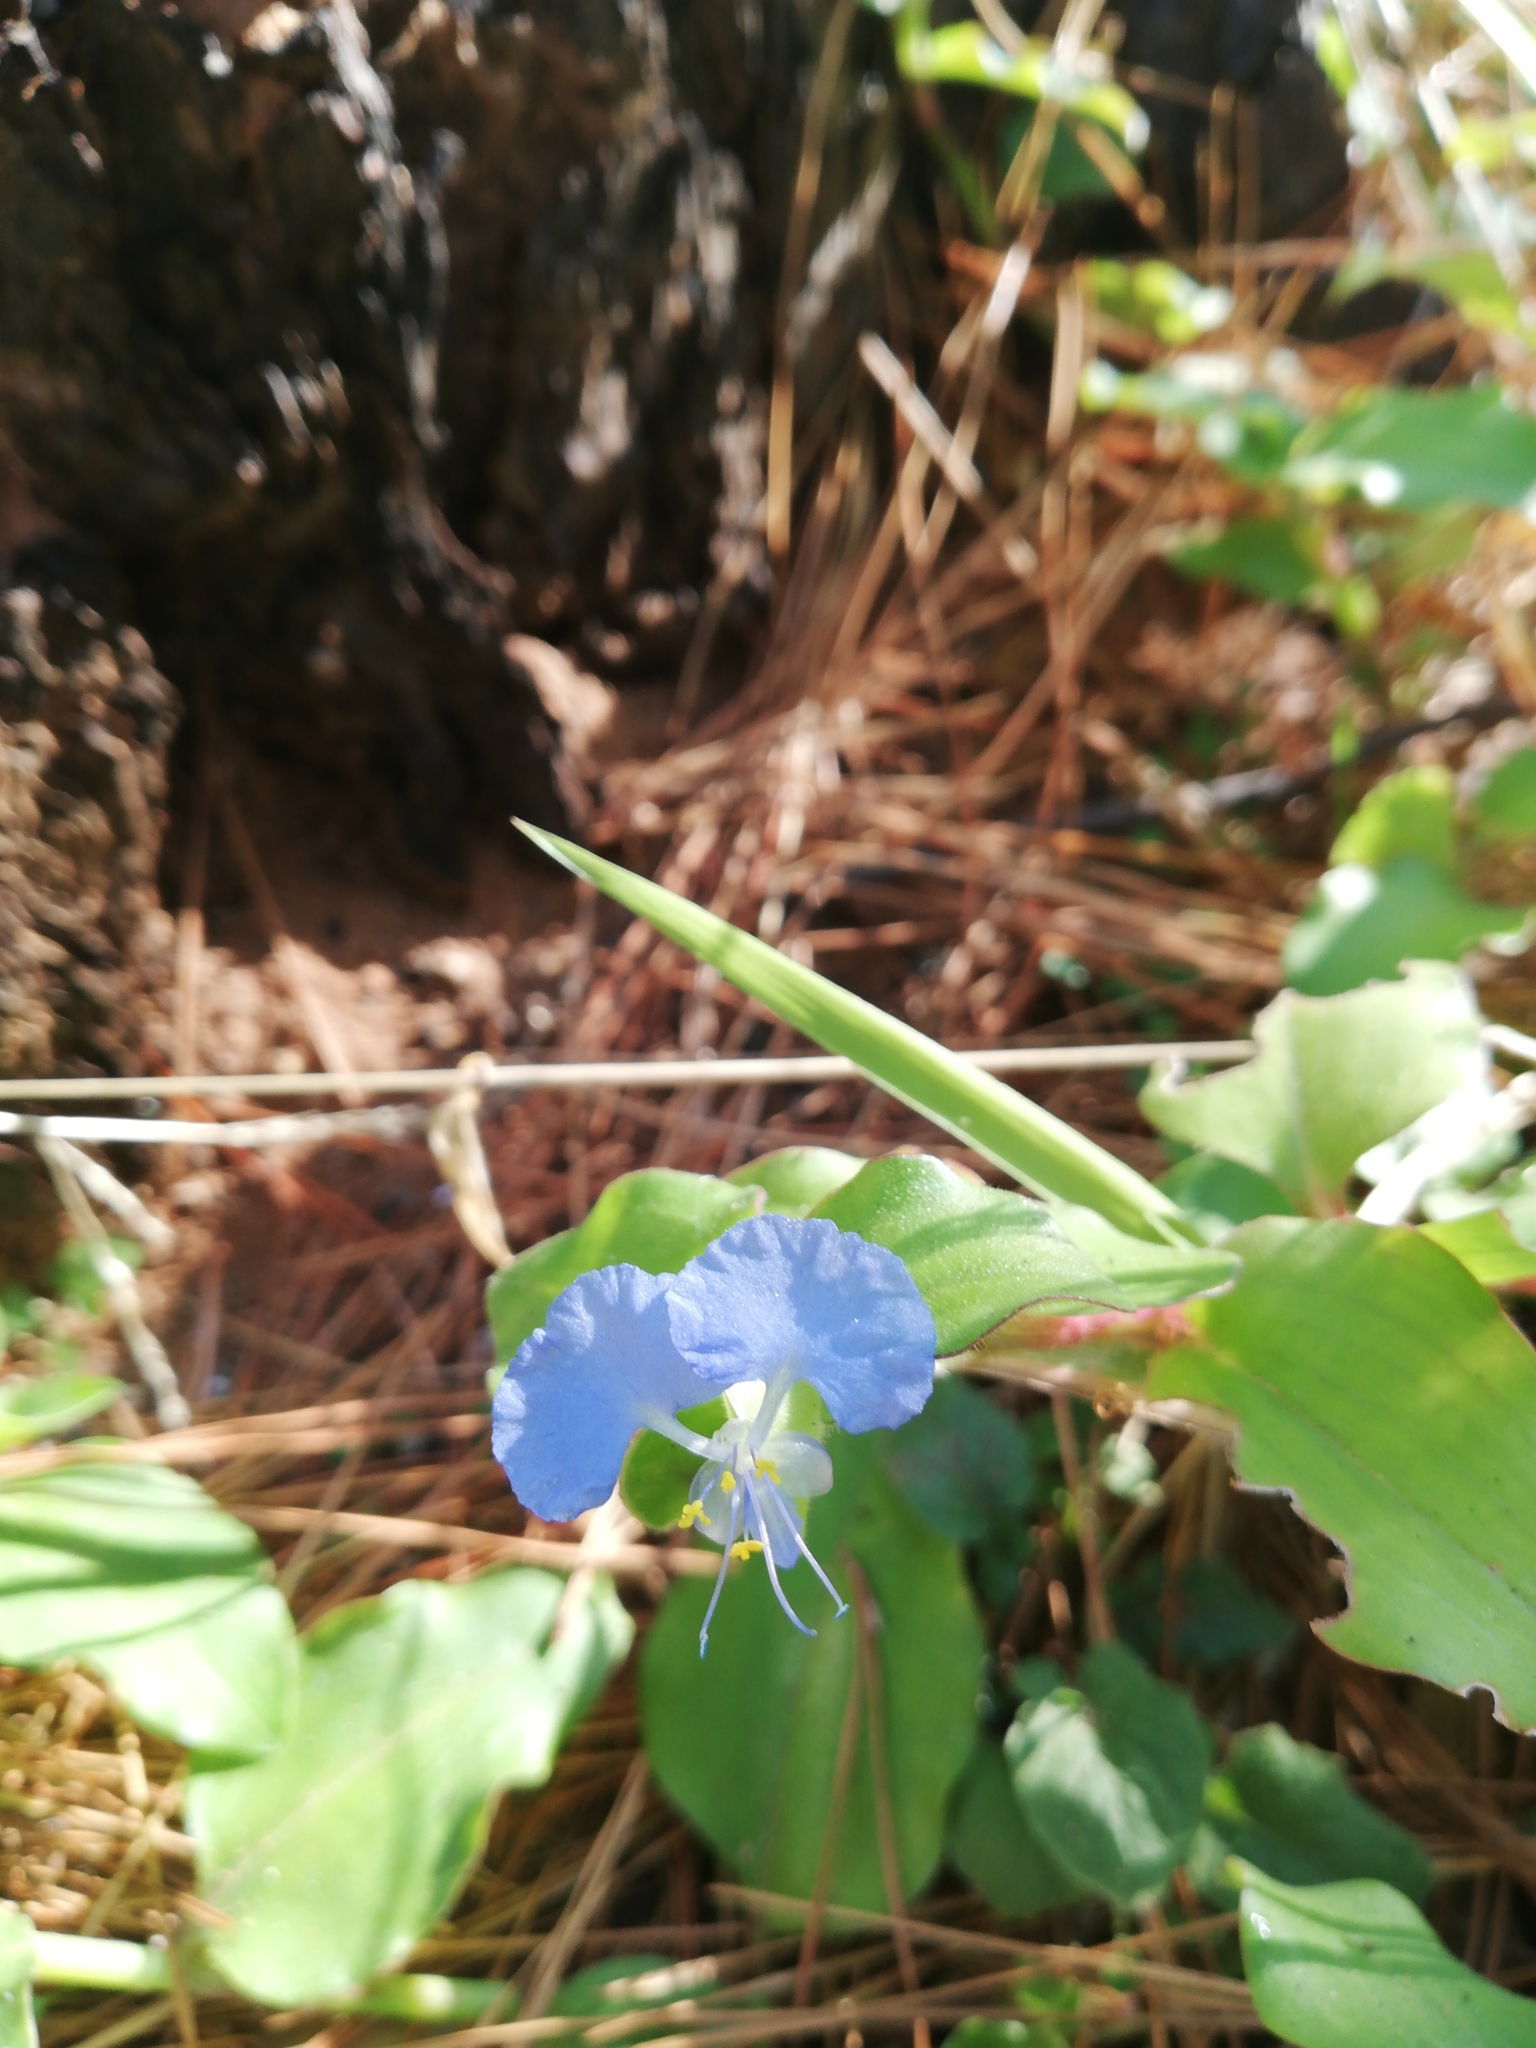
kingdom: Plantae
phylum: Tracheophyta
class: Liliopsida
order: Commelinales
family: Commelinaceae
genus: Commelina
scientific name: Commelina benghalensis
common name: Jio
